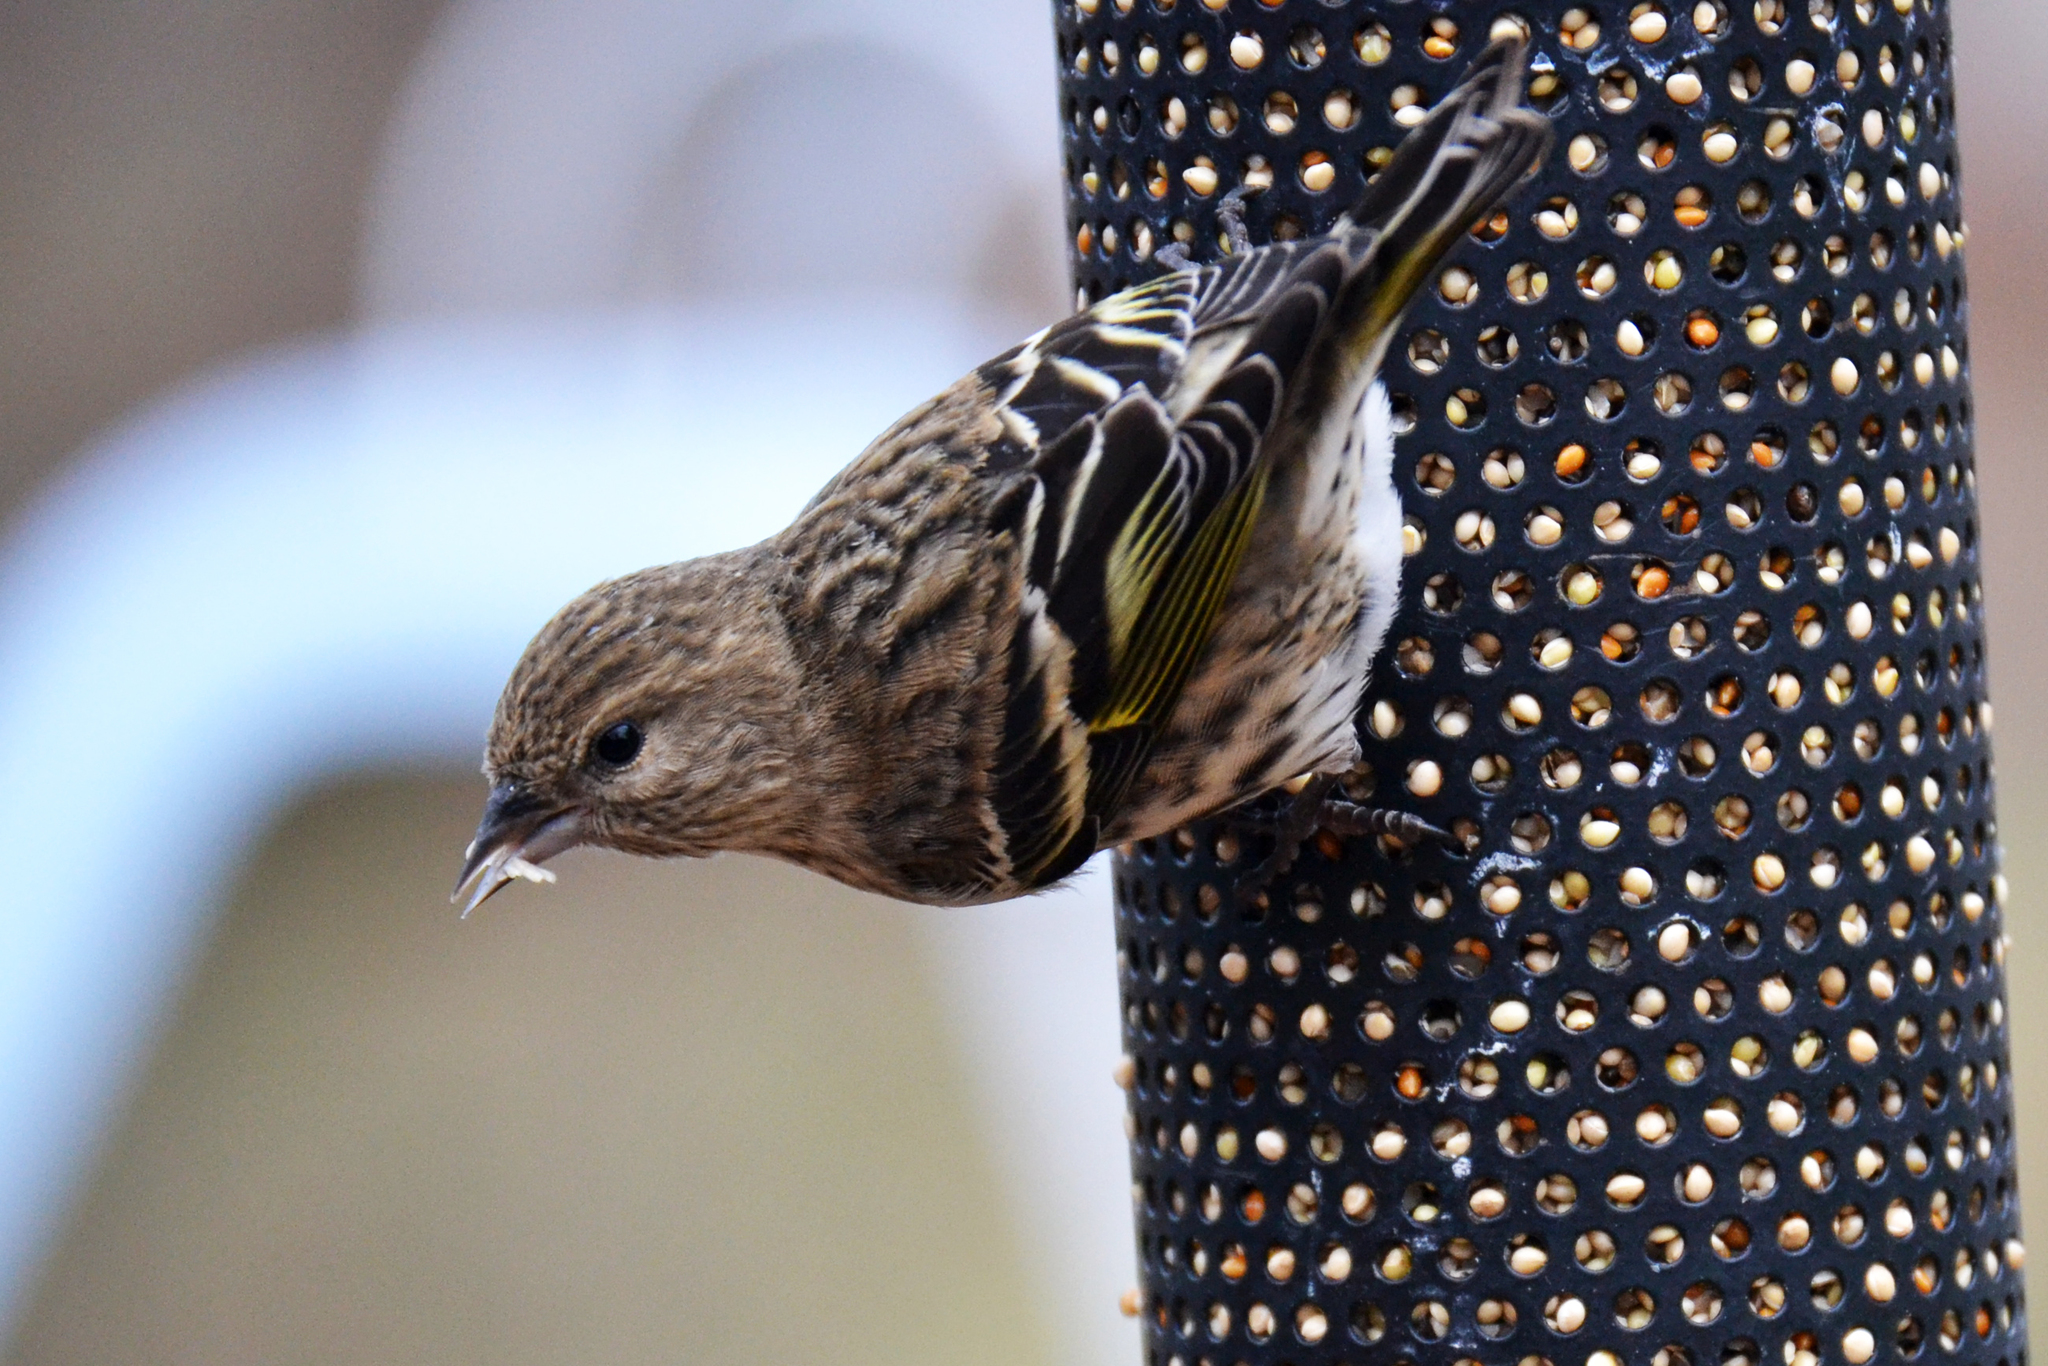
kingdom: Animalia
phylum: Chordata
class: Aves
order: Passeriformes
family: Fringillidae
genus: Spinus
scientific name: Spinus pinus
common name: Pine siskin
